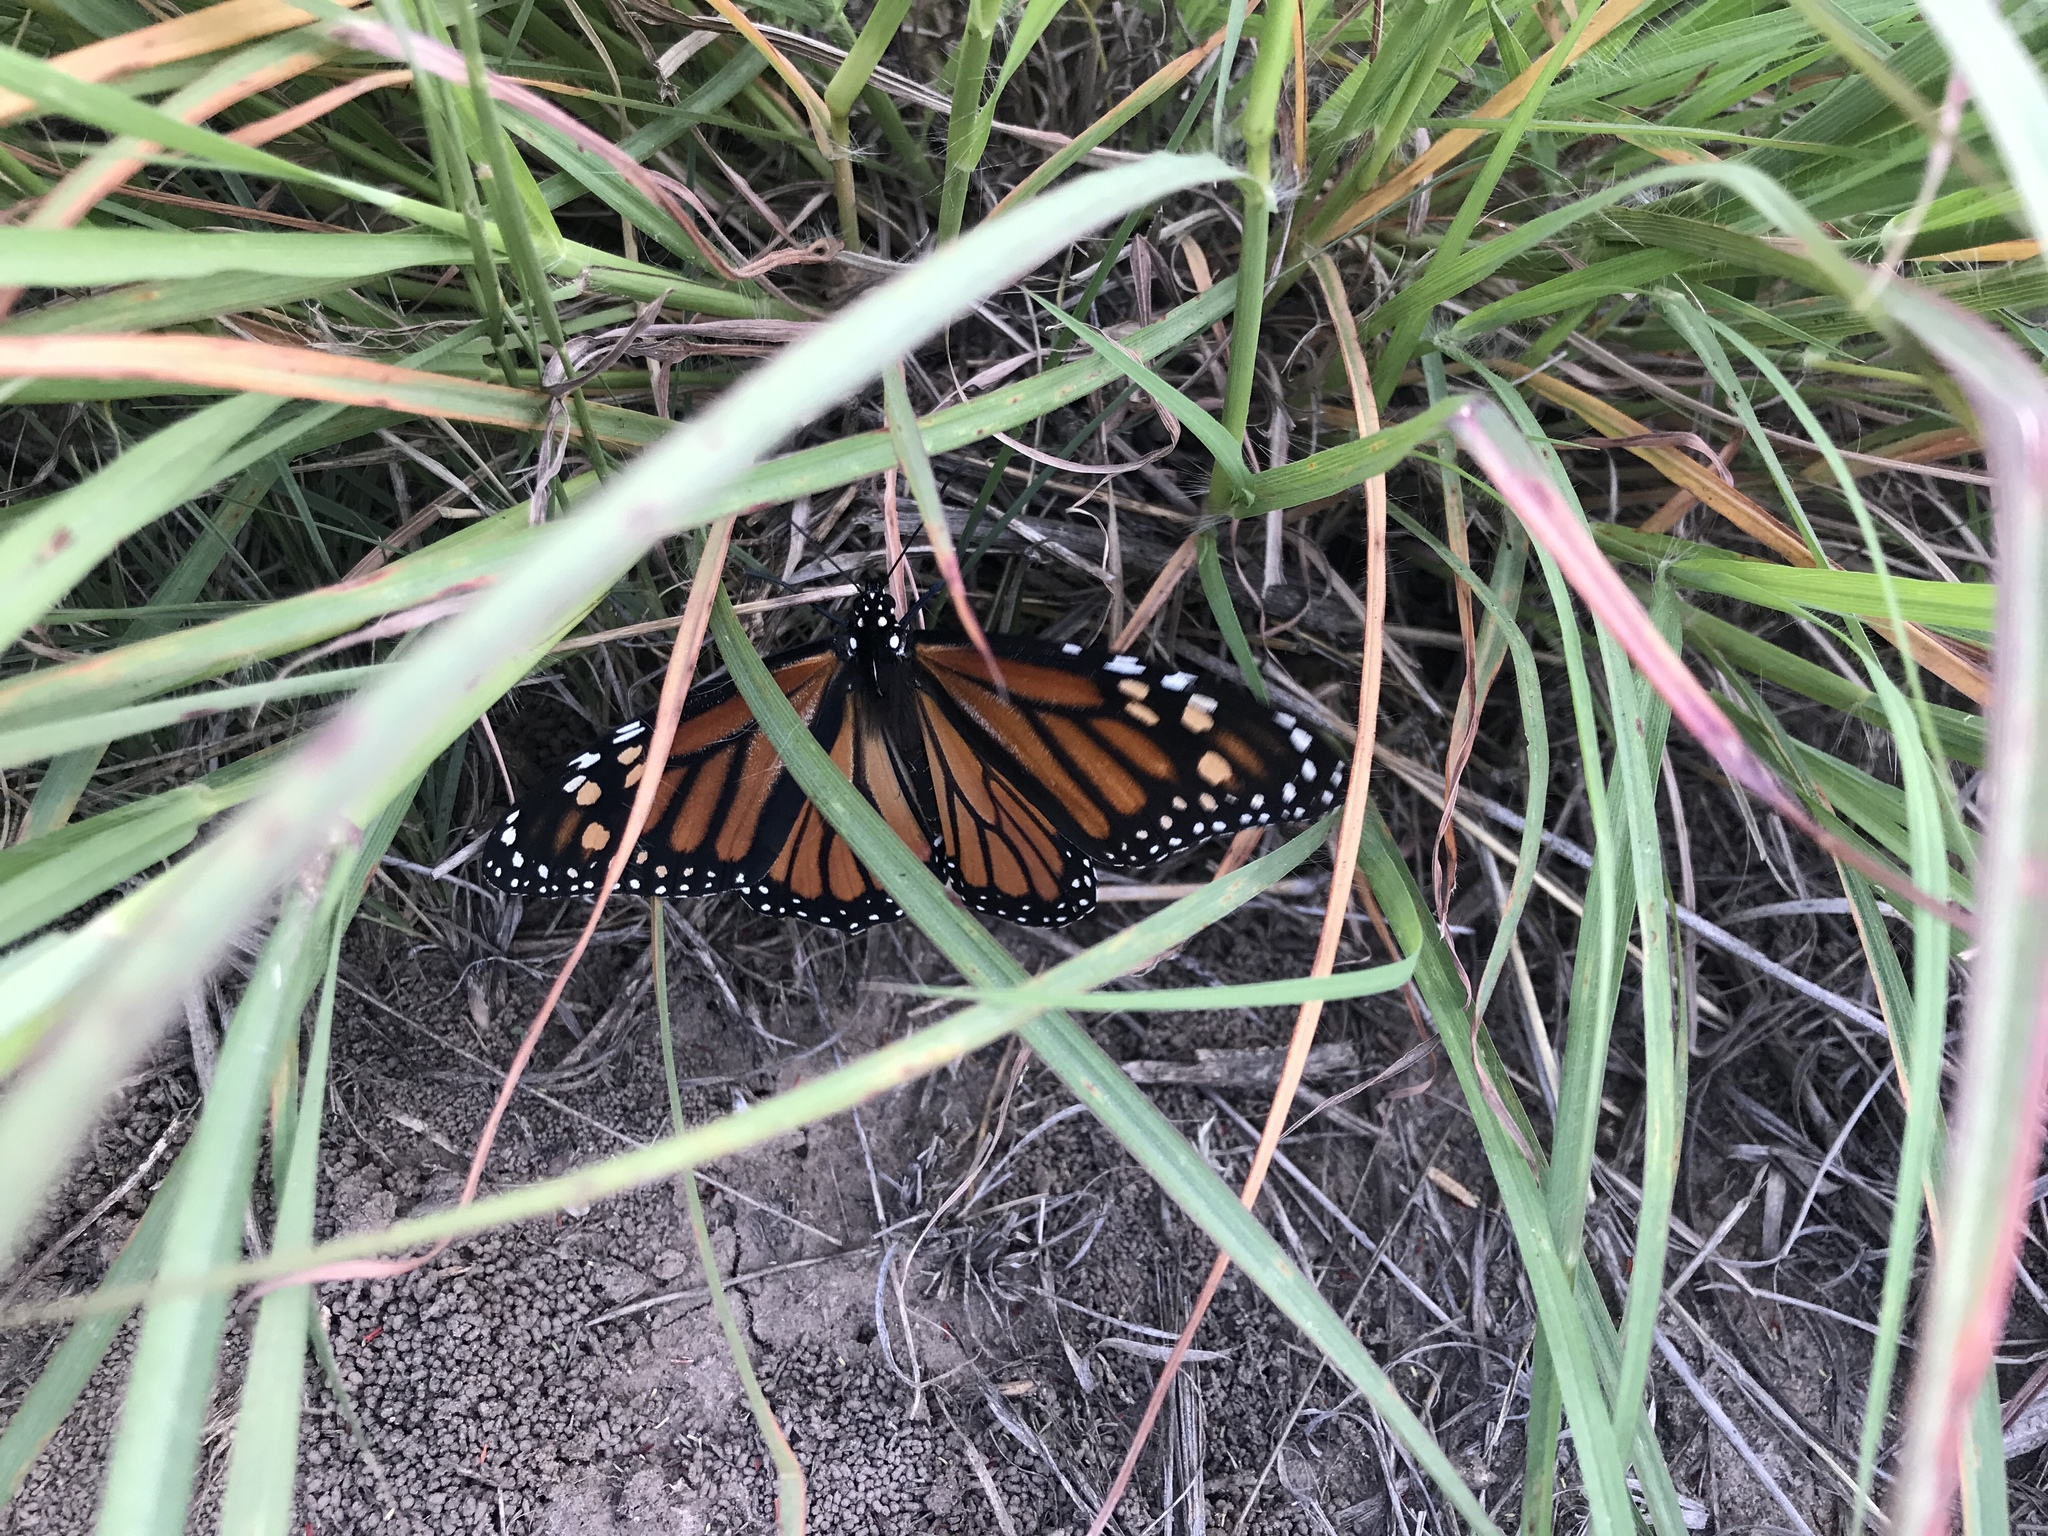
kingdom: Animalia
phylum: Arthropoda
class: Insecta
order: Lepidoptera
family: Nymphalidae
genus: Danaus
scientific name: Danaus plexippus
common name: Monarch
